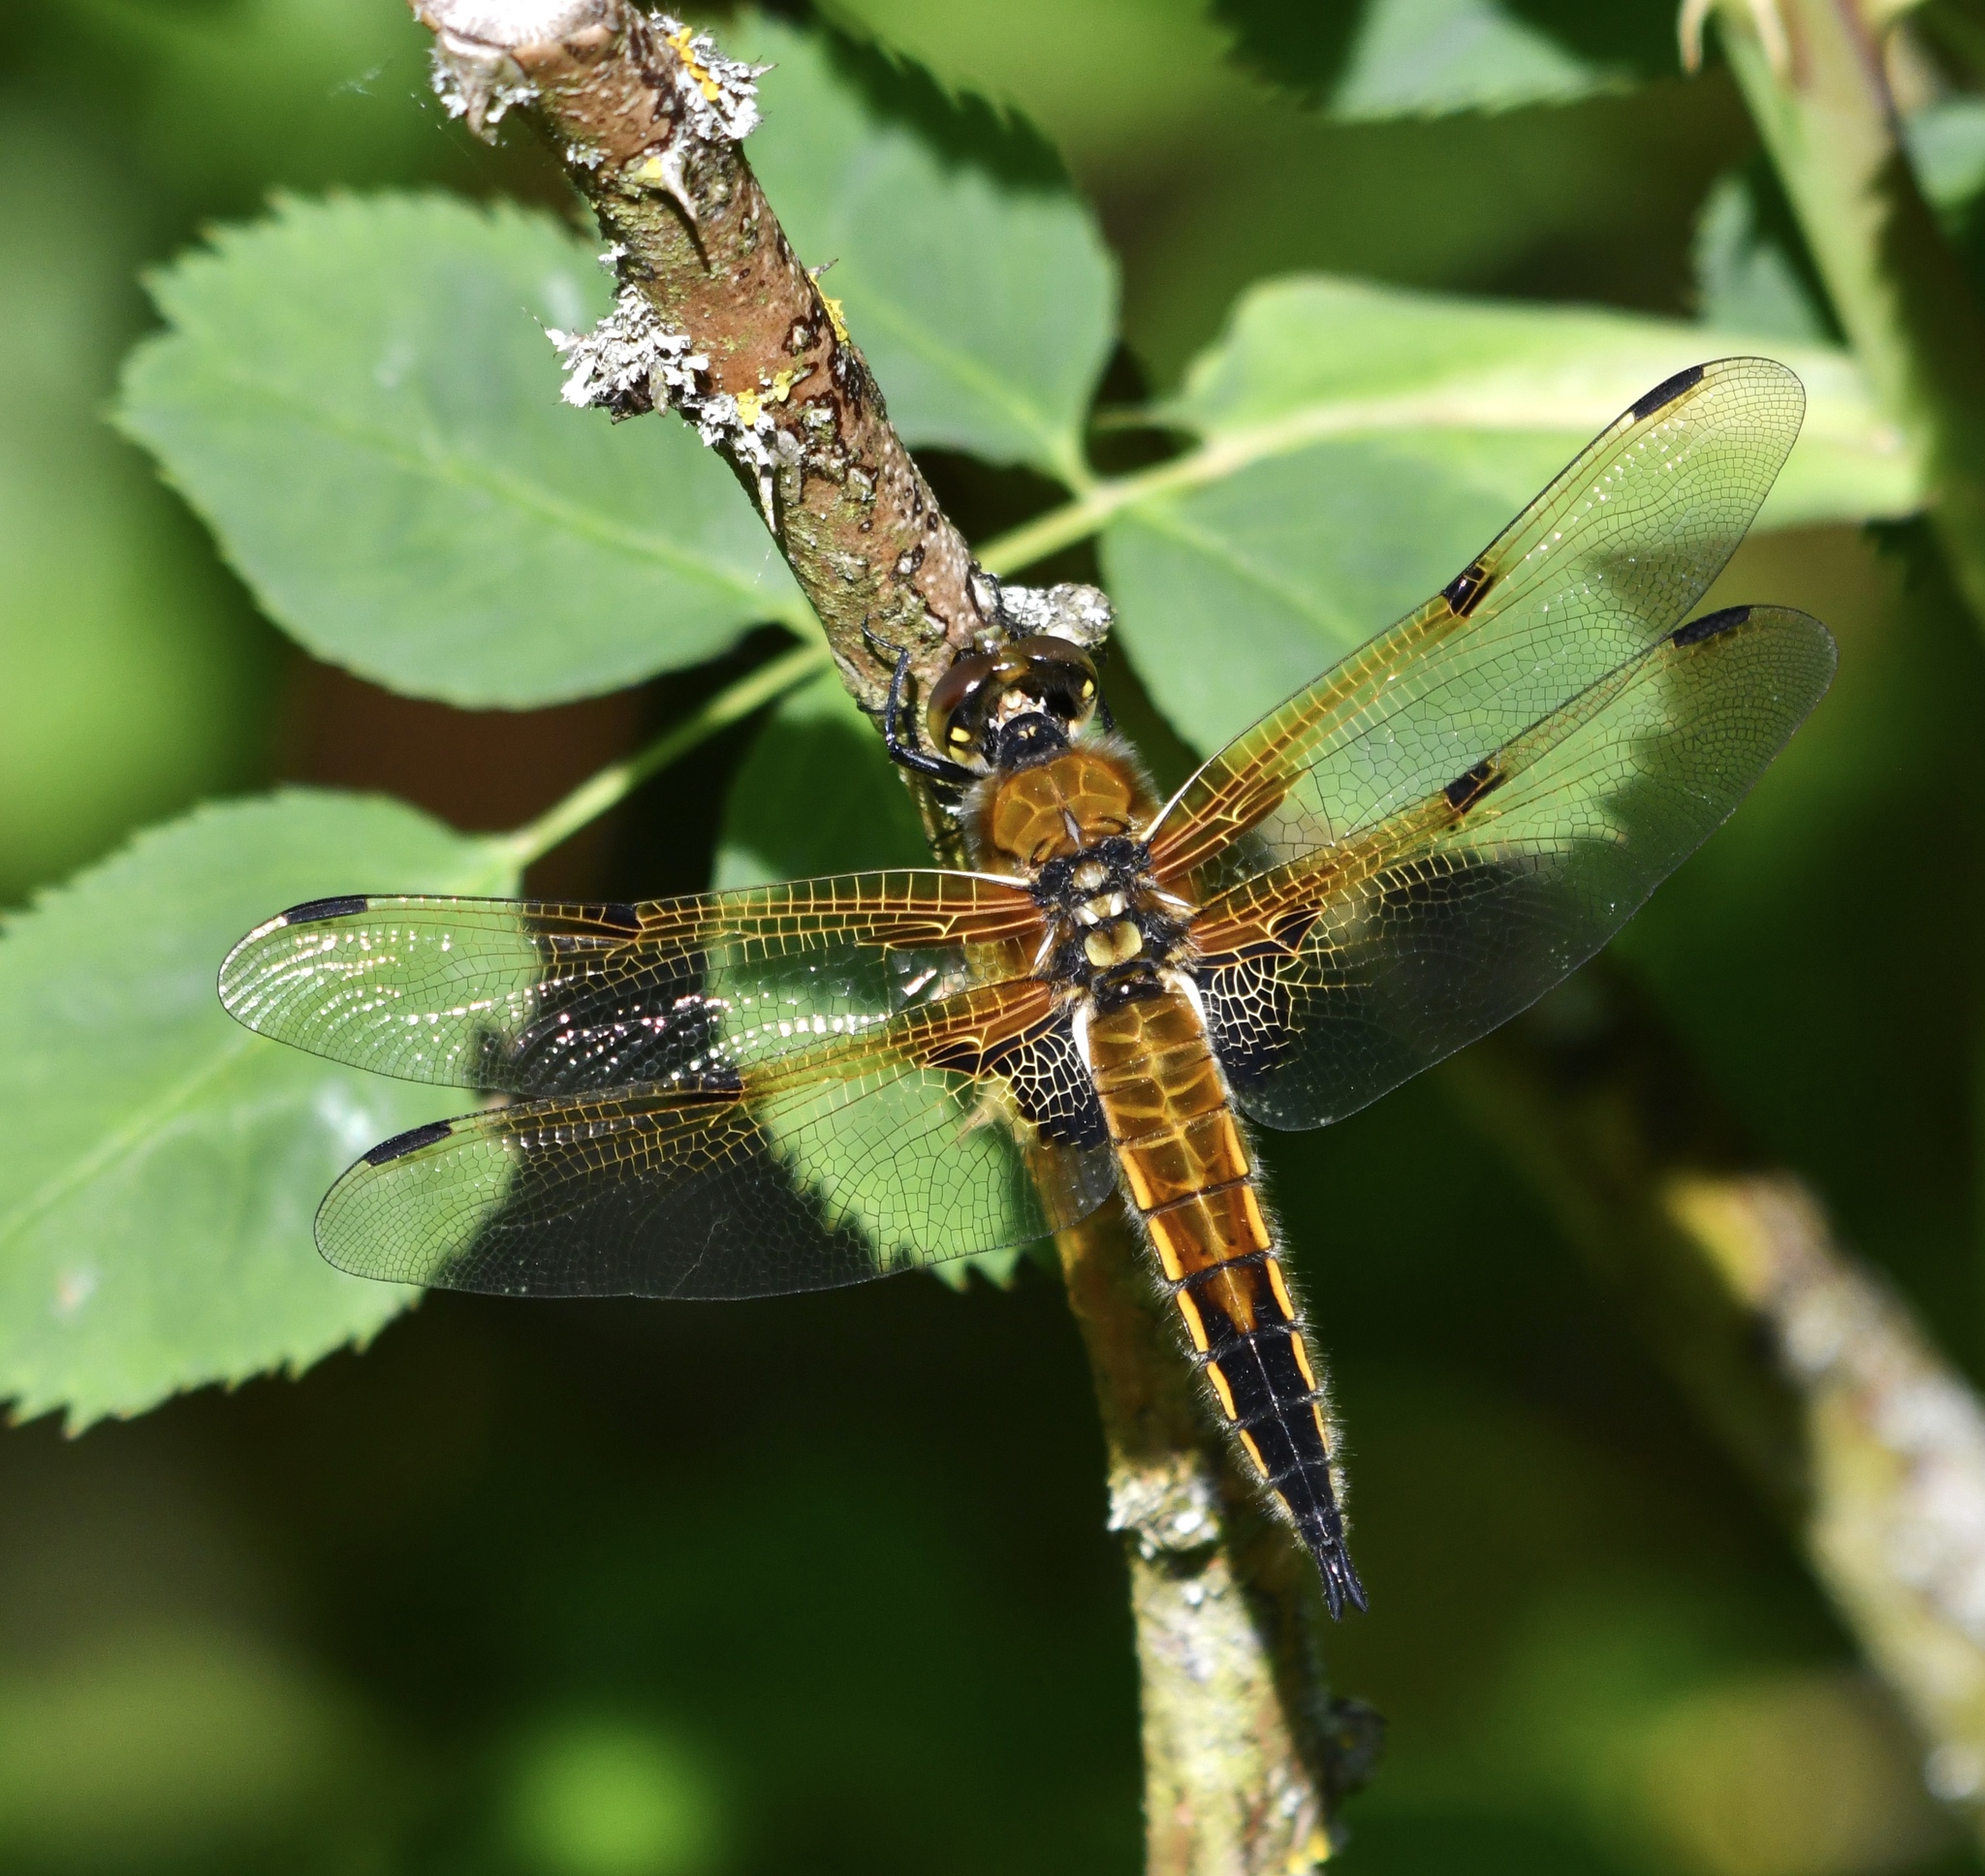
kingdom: Animalia
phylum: Arthropoda
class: Insecta
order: Odonata
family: Libellulidae
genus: Libellula
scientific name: Libellula quadrimaculata
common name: Four-spotted chaser
